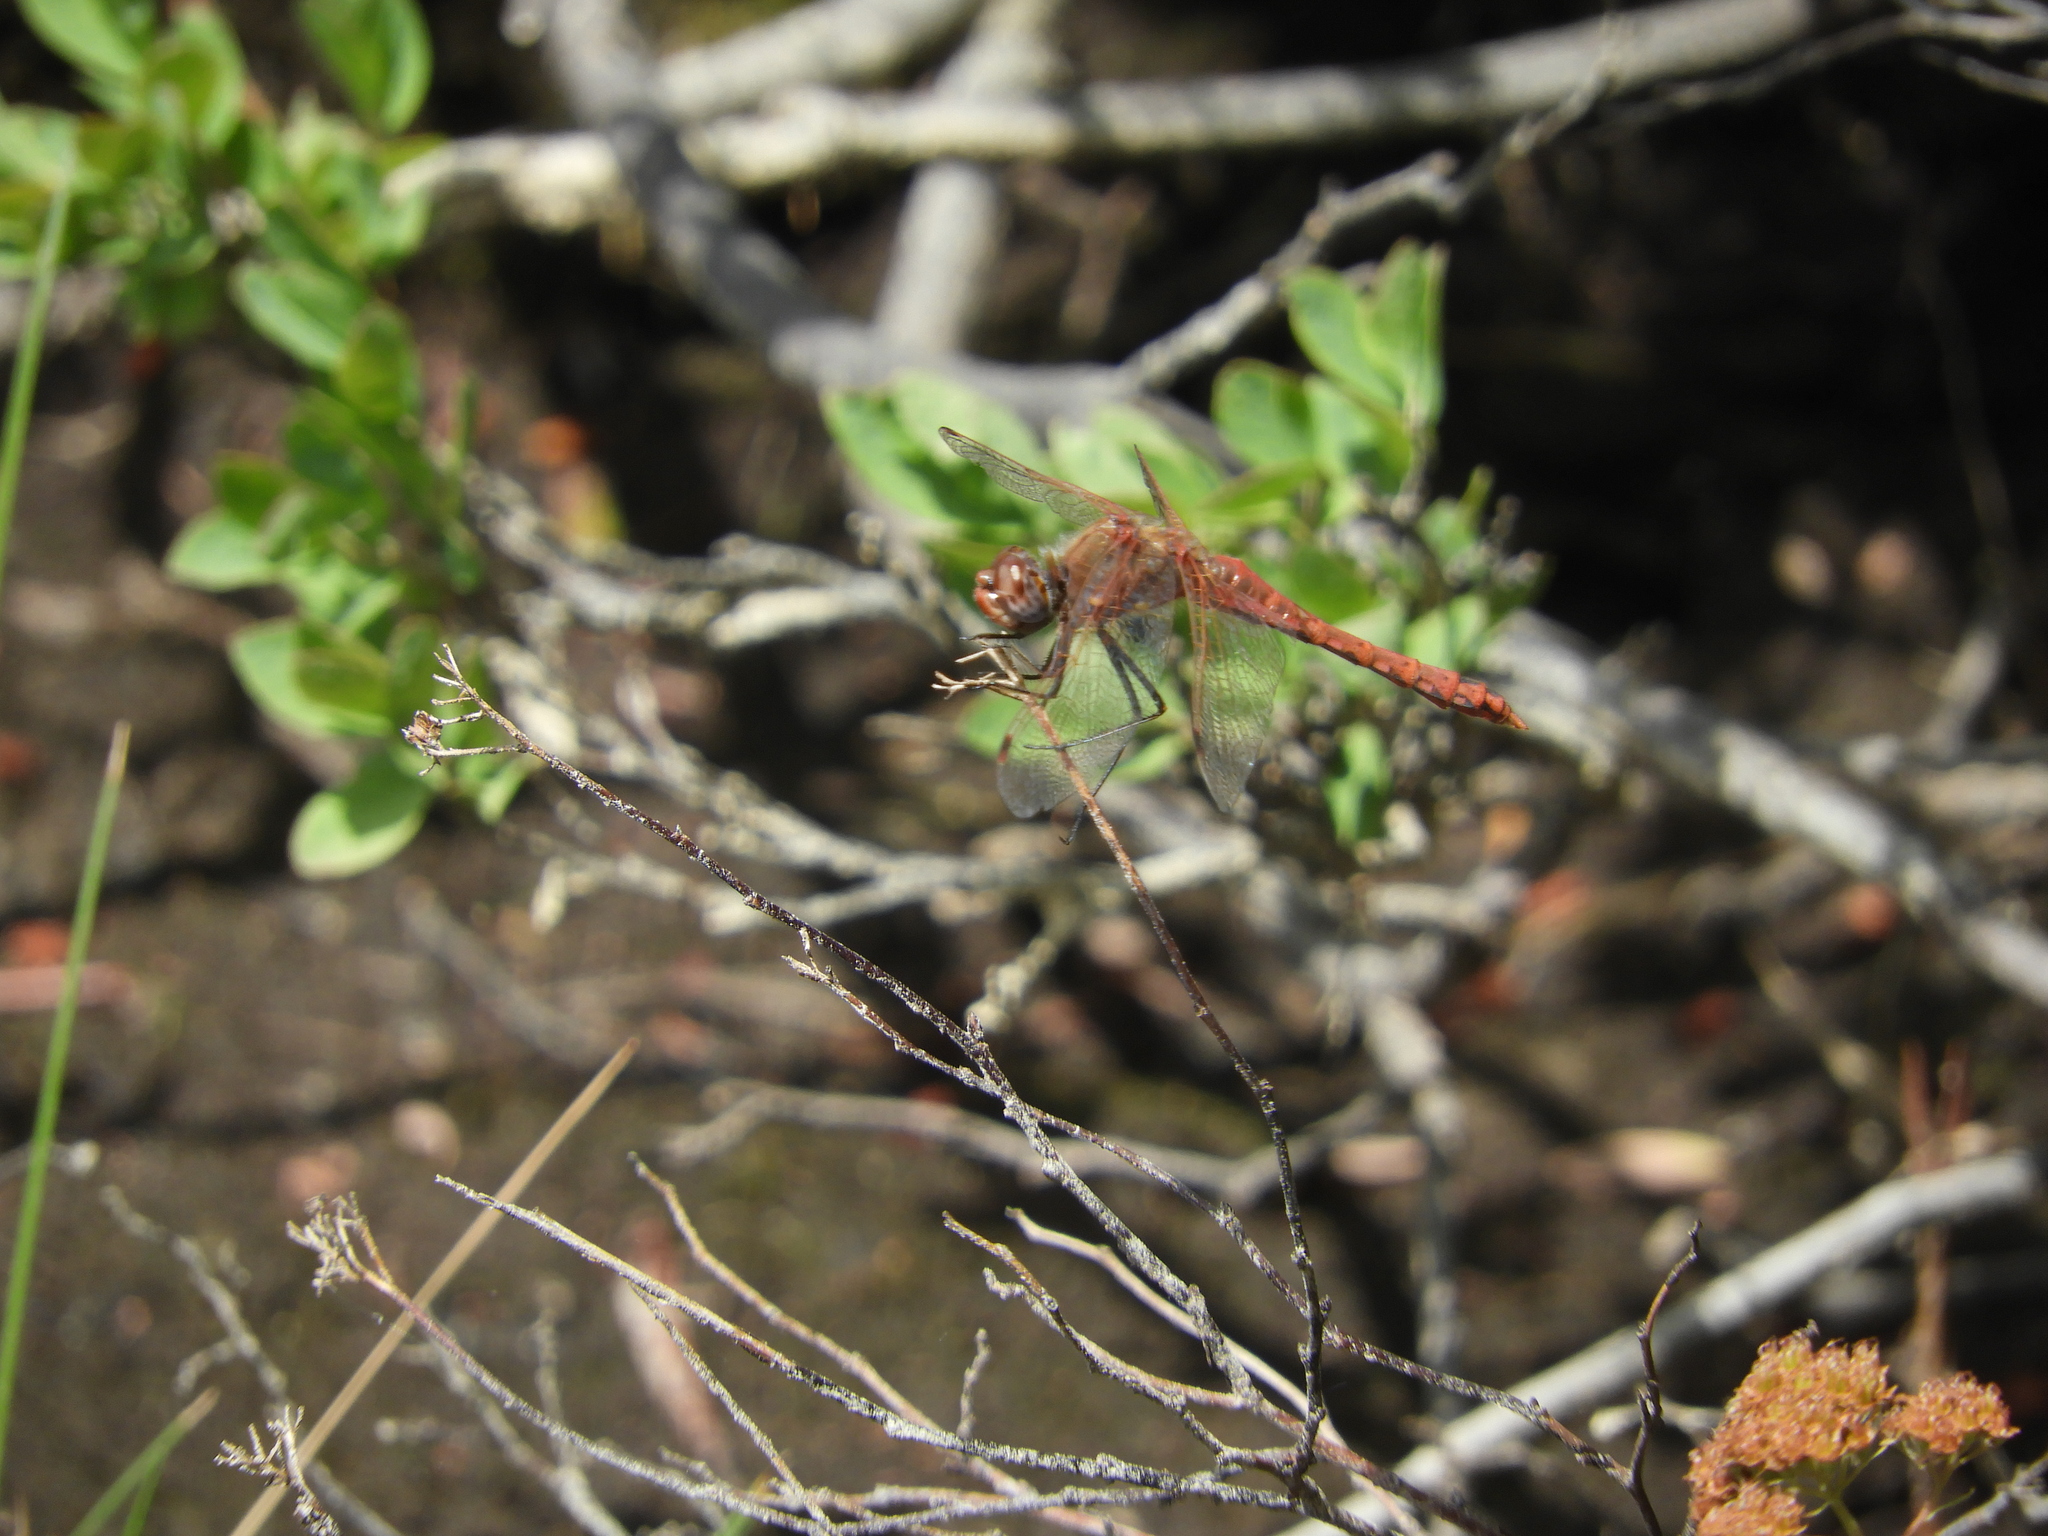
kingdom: Animalia
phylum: Arthropoda
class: Insecta
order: Odonata
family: Libellulidae
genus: Sympetrum
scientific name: Sympetrum pallipes
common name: Striped meadowhawk
